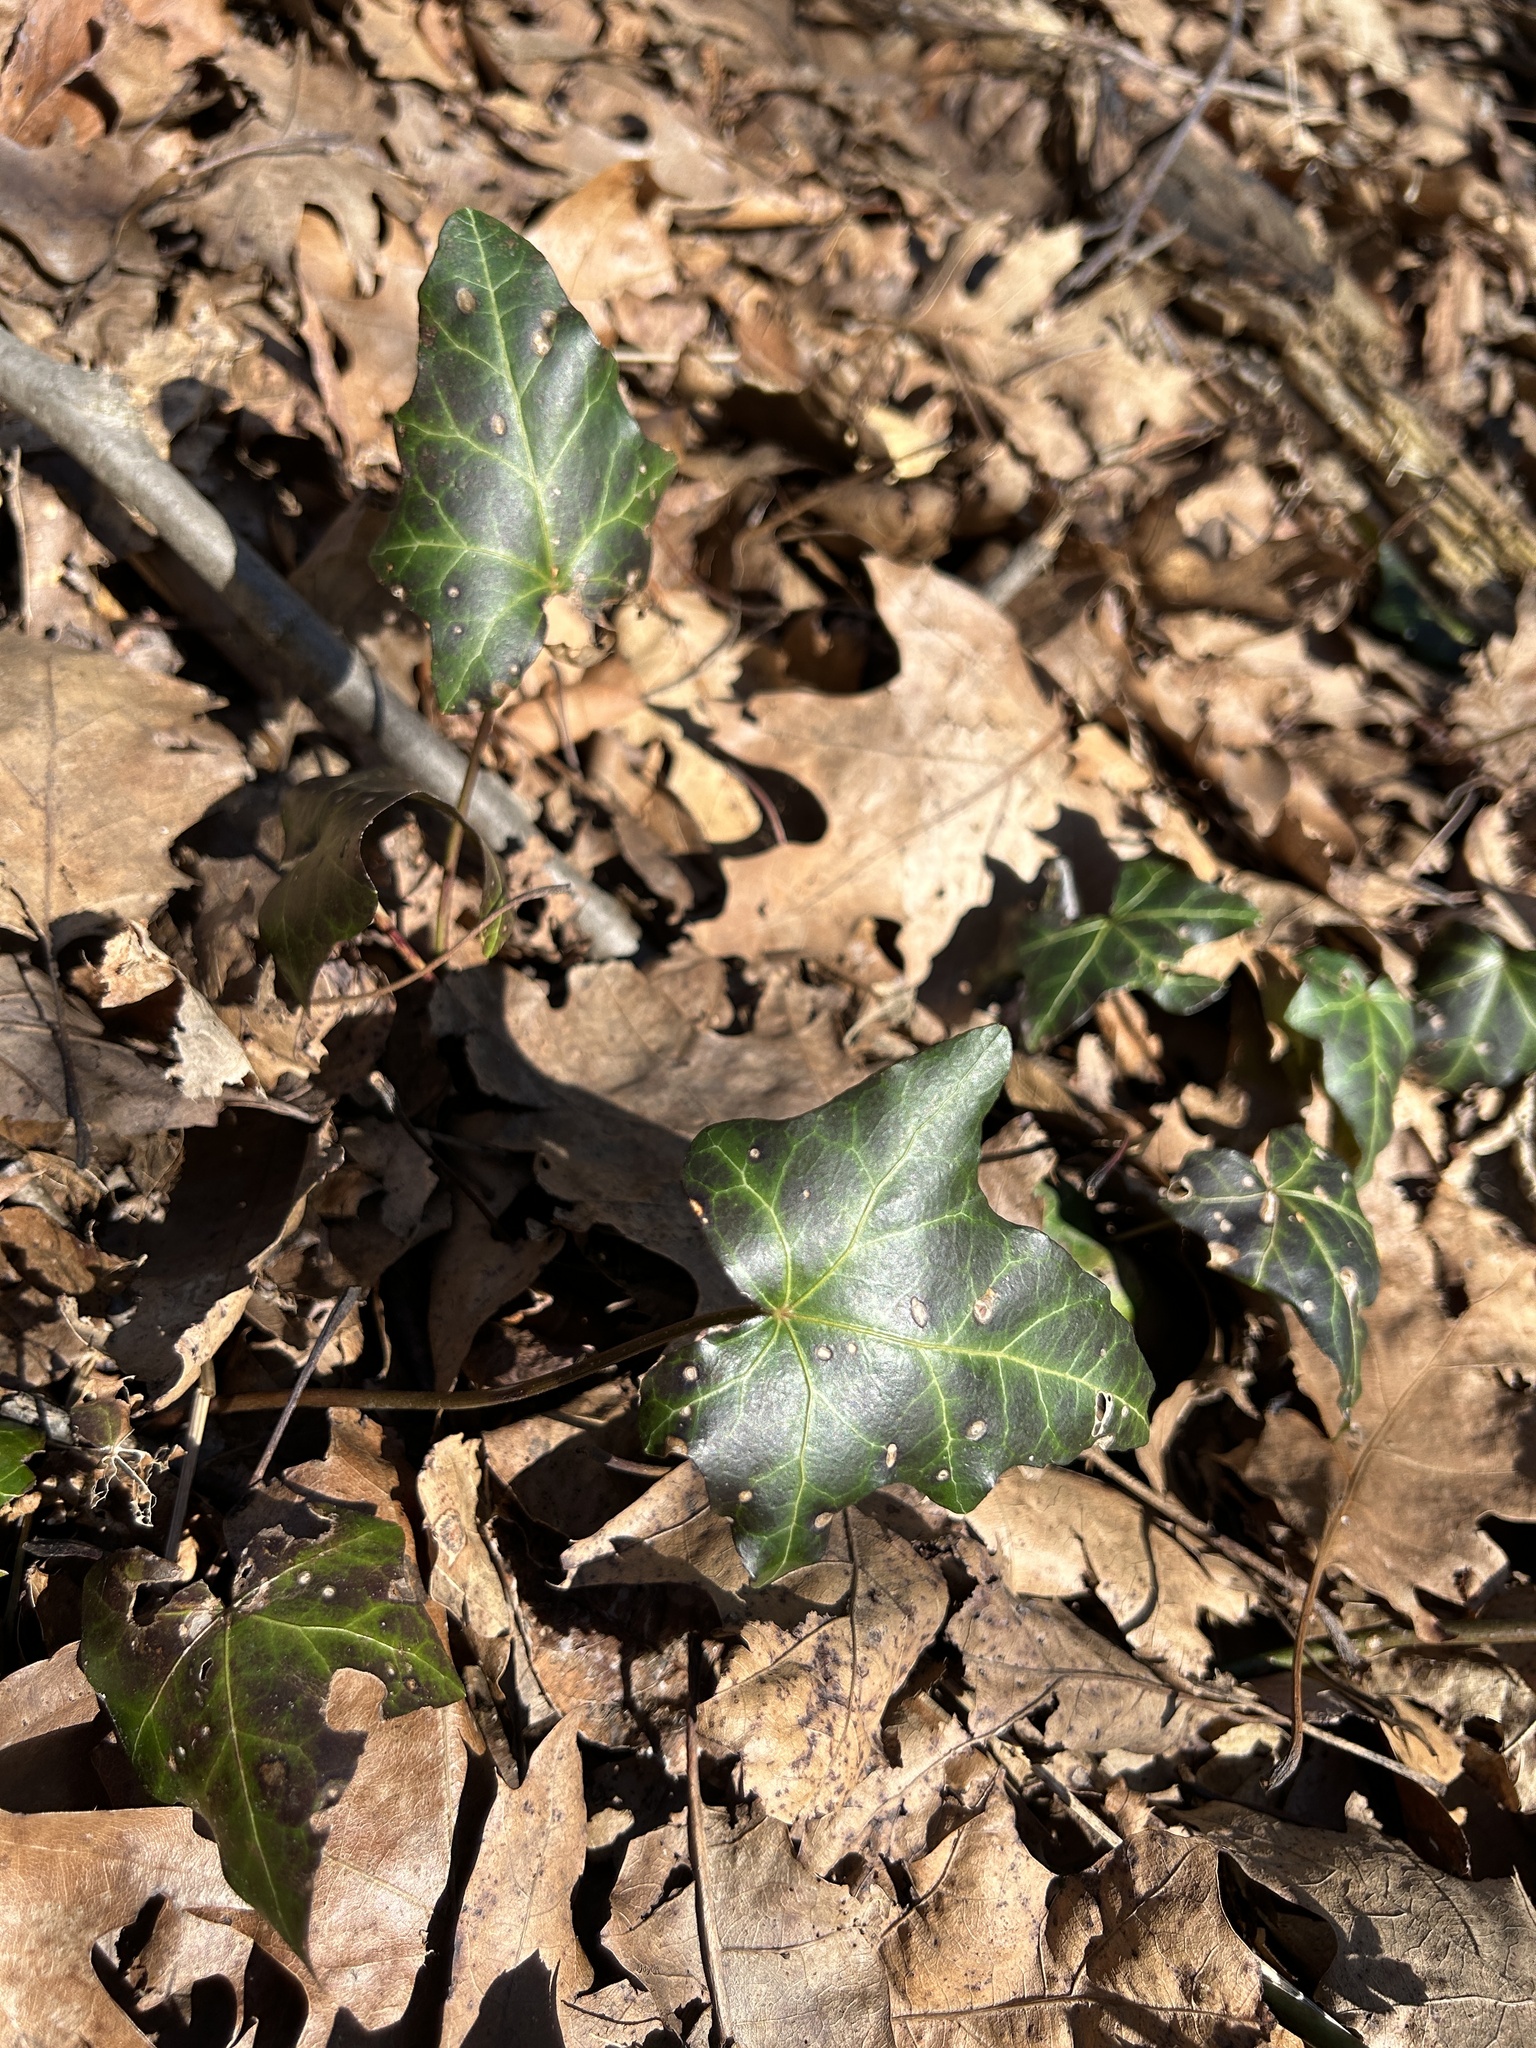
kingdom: Plantae
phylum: Tracheophyta
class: Magnoliopsida
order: Apiales
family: Araliaceae
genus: Hedera
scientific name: Hedera helix
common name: Ivy
